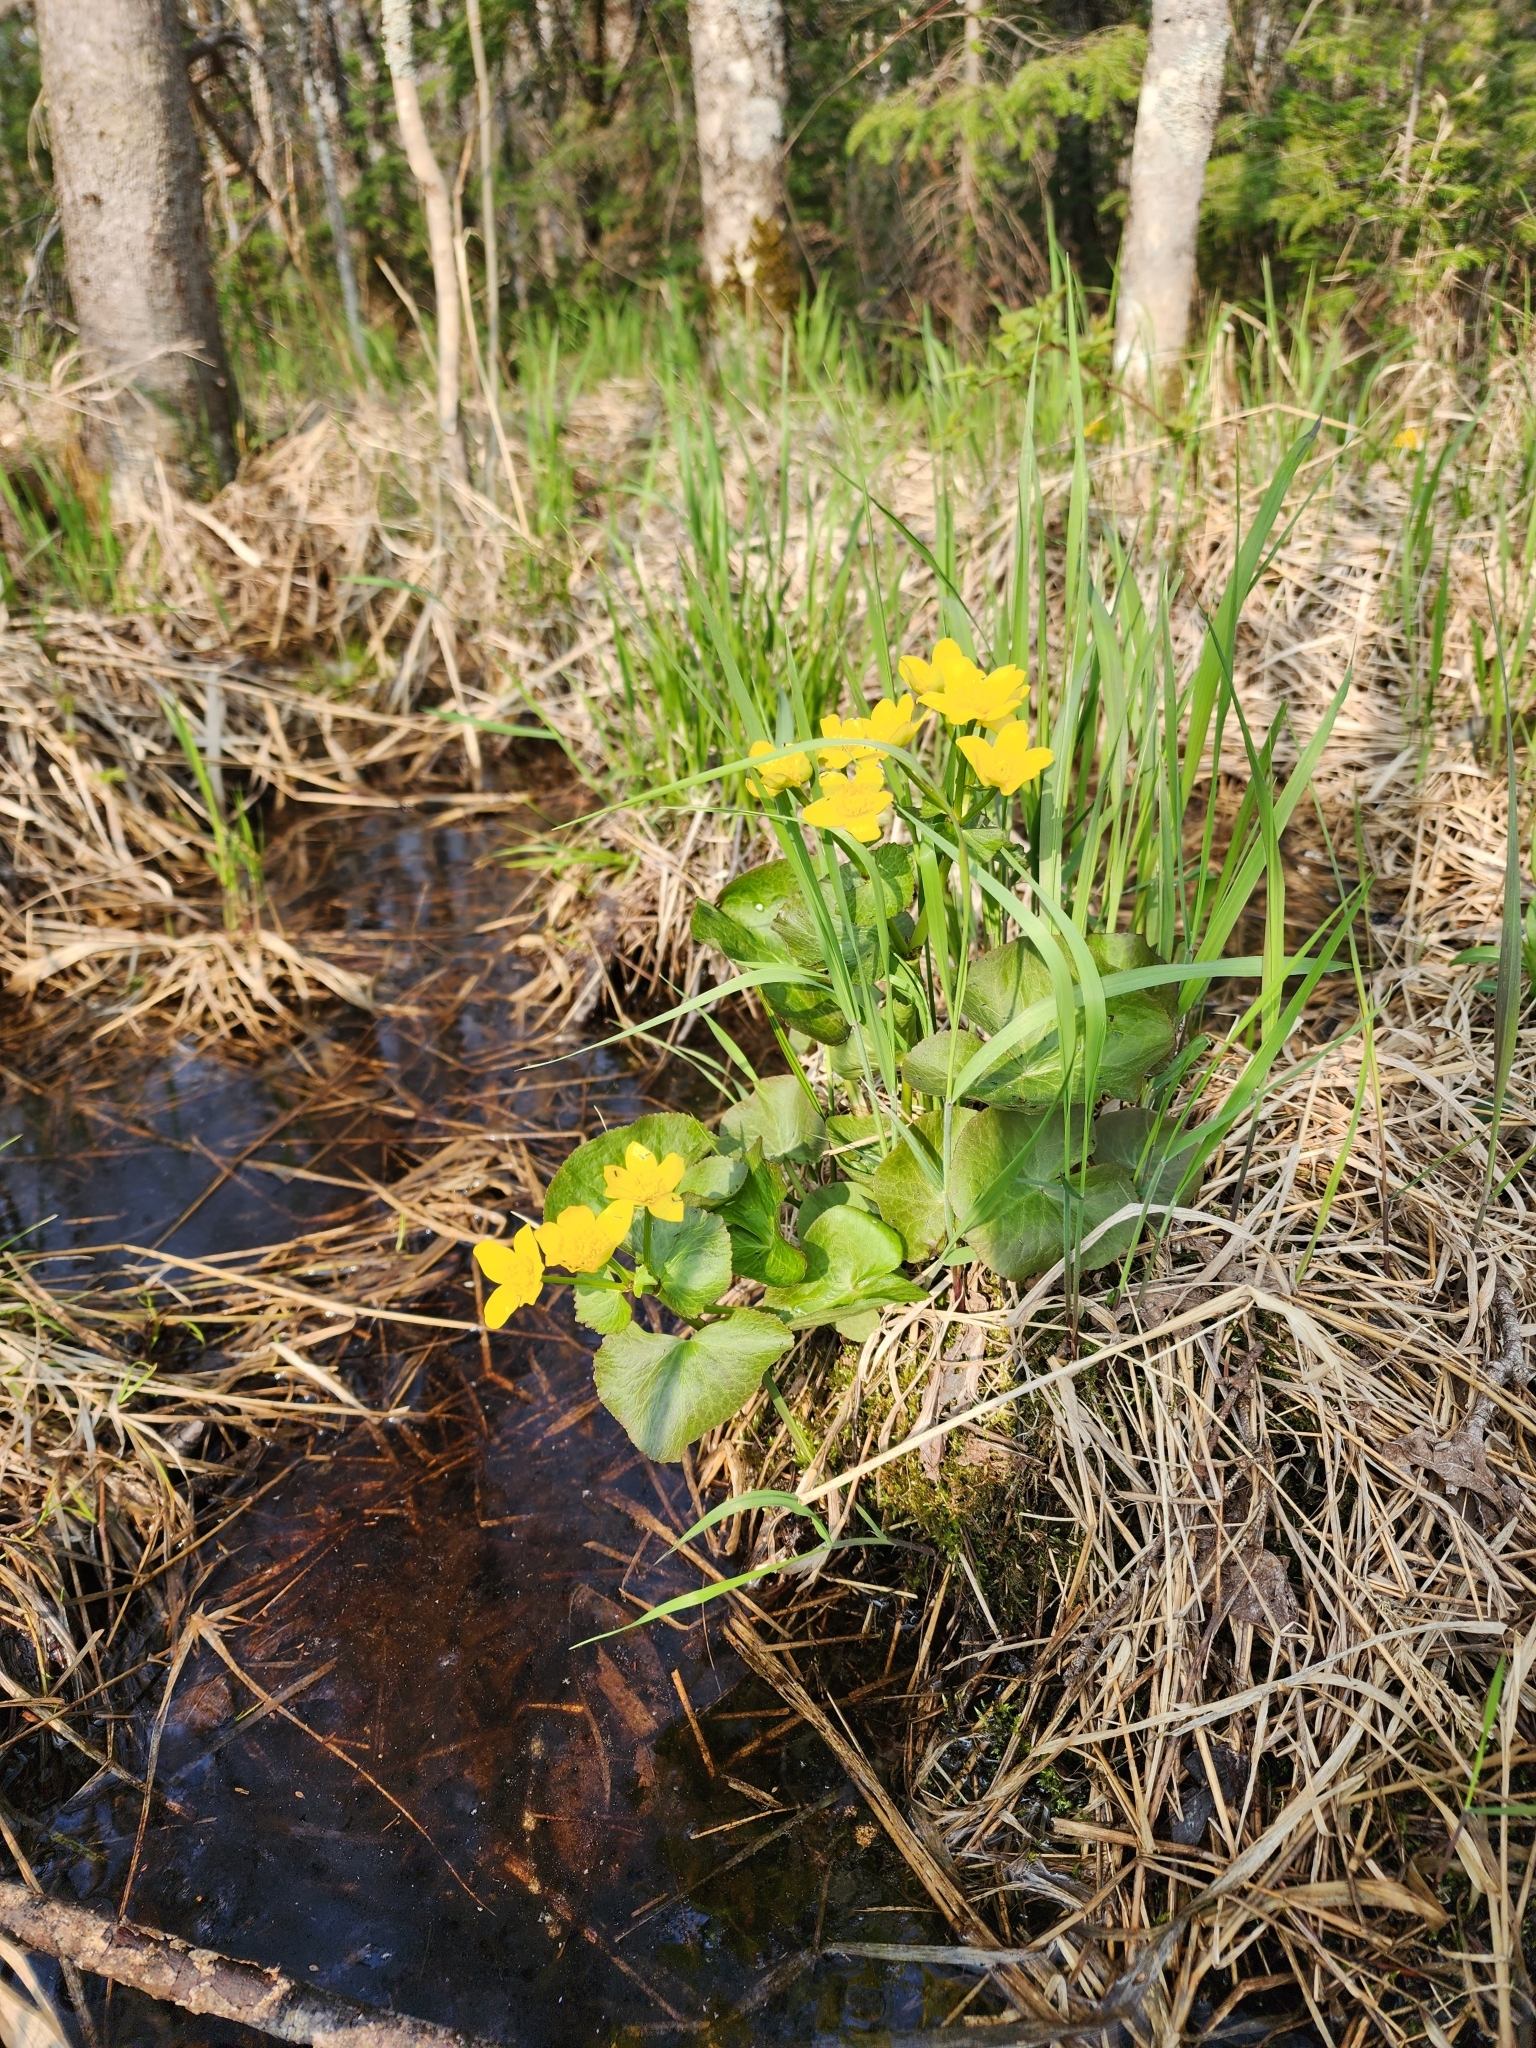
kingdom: Plantae
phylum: Tracheophyta
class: Magnoliopsida
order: Ranunculales
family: Ranunculaceae
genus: Caltha
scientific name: Caltha palustris
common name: Marsh marigold
